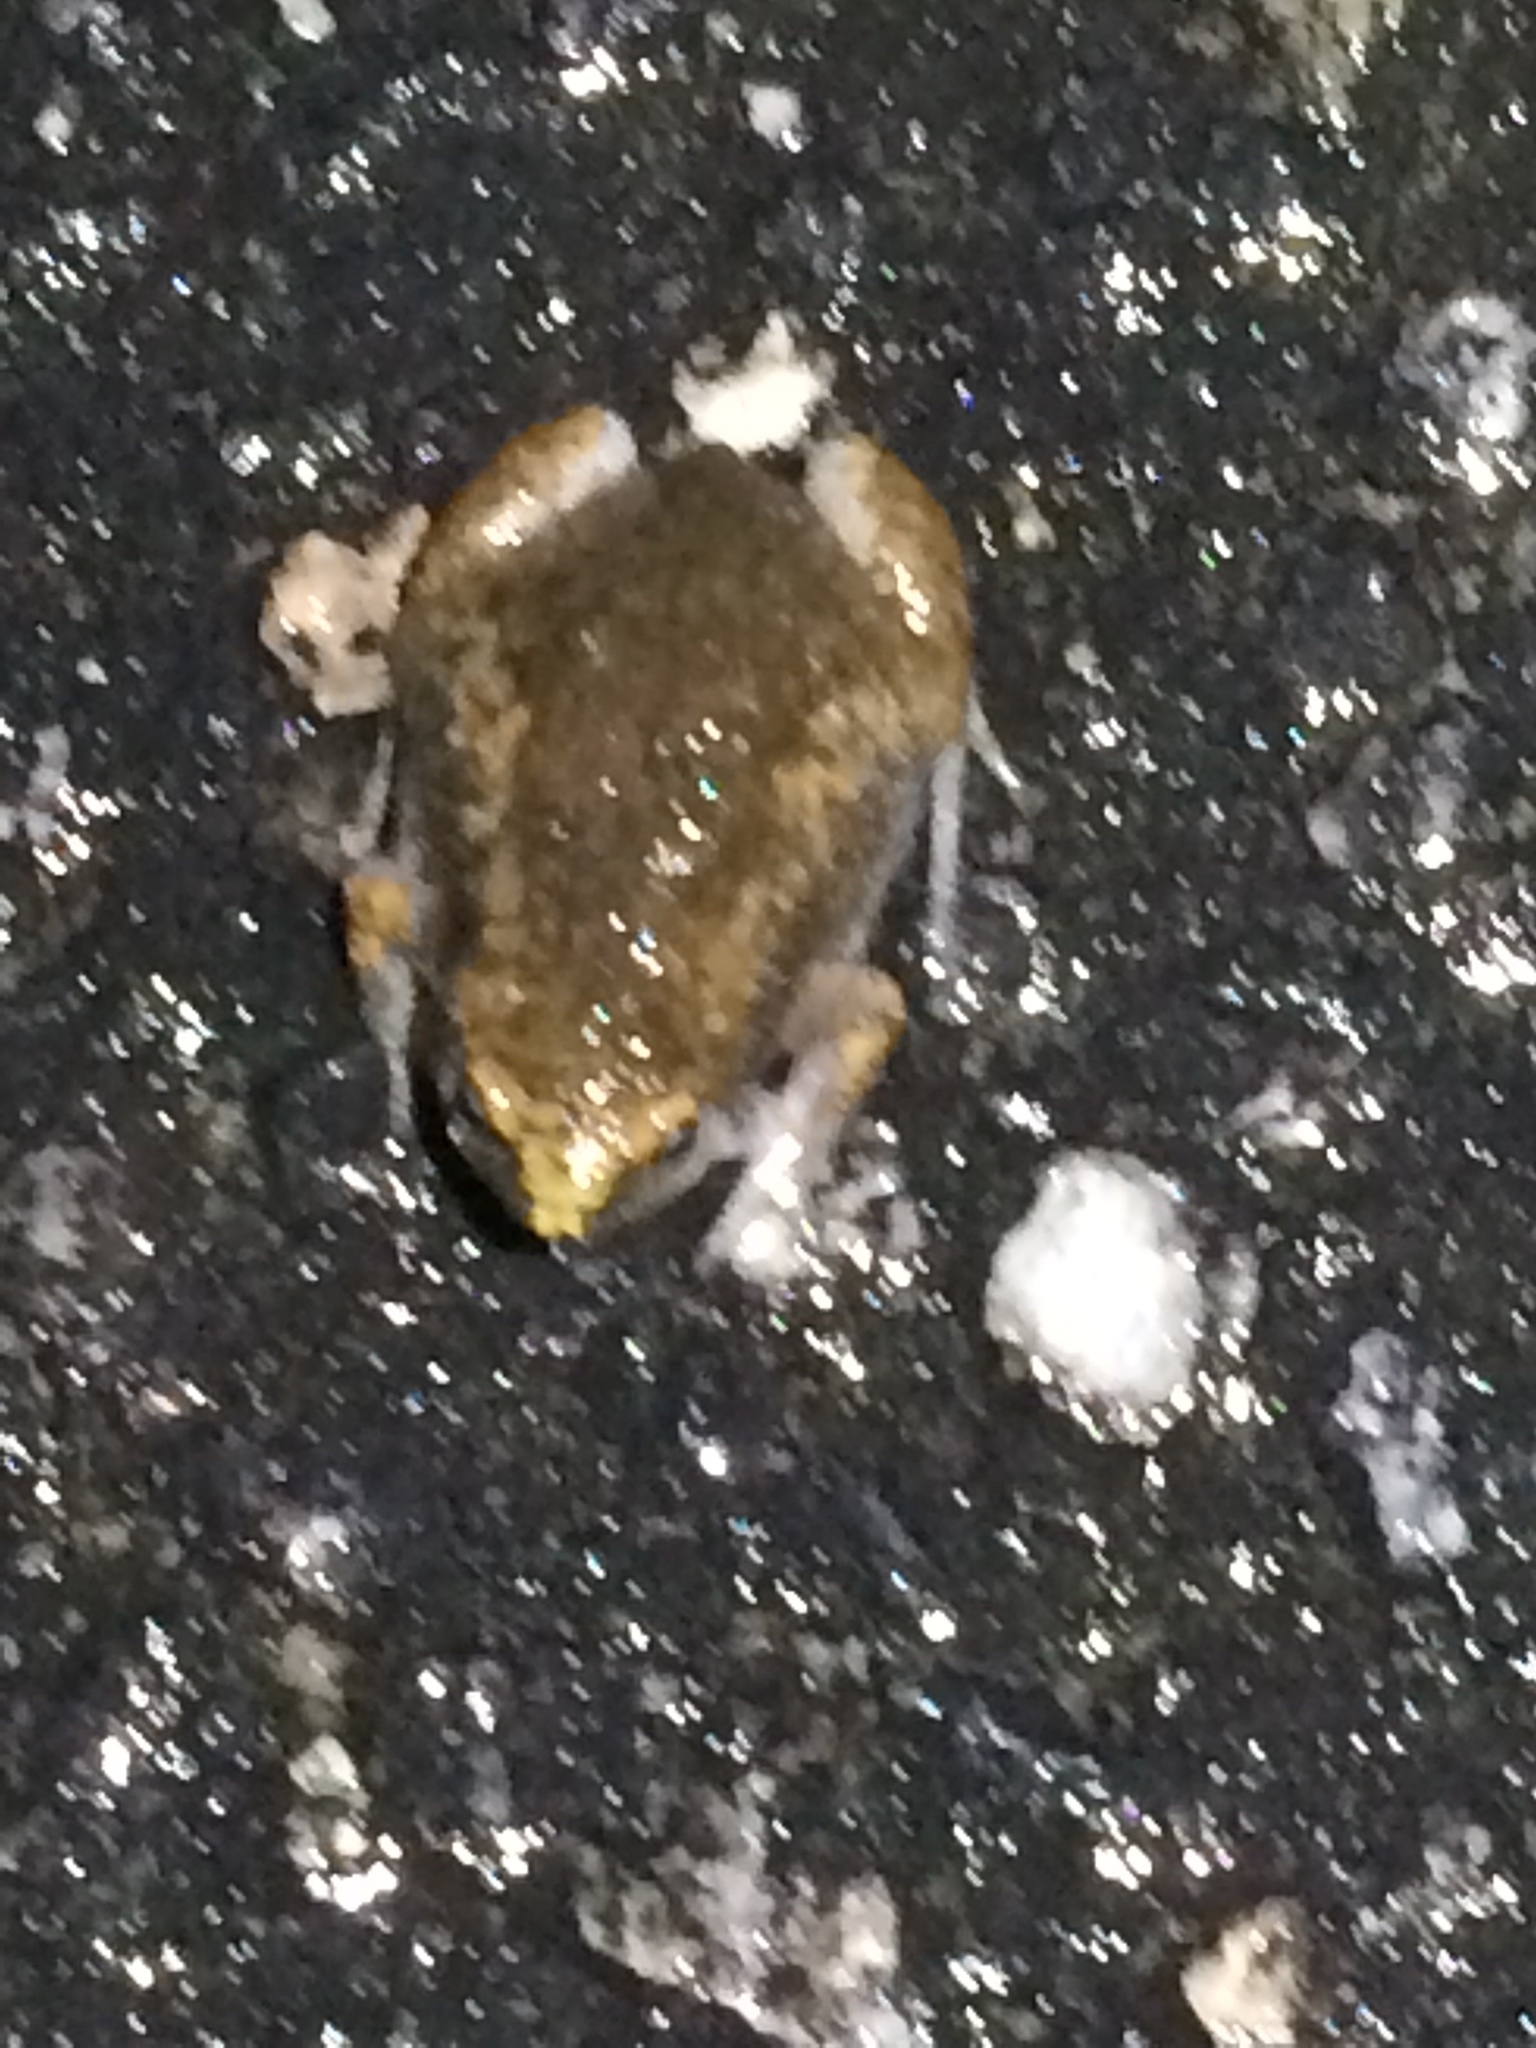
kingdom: Animalia
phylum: Chordata
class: Amphibia
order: Anura
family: Microhylidae
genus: Gastrophryne
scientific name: Gastrophryne carolinensis
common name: Eastern narrowmouth toad
